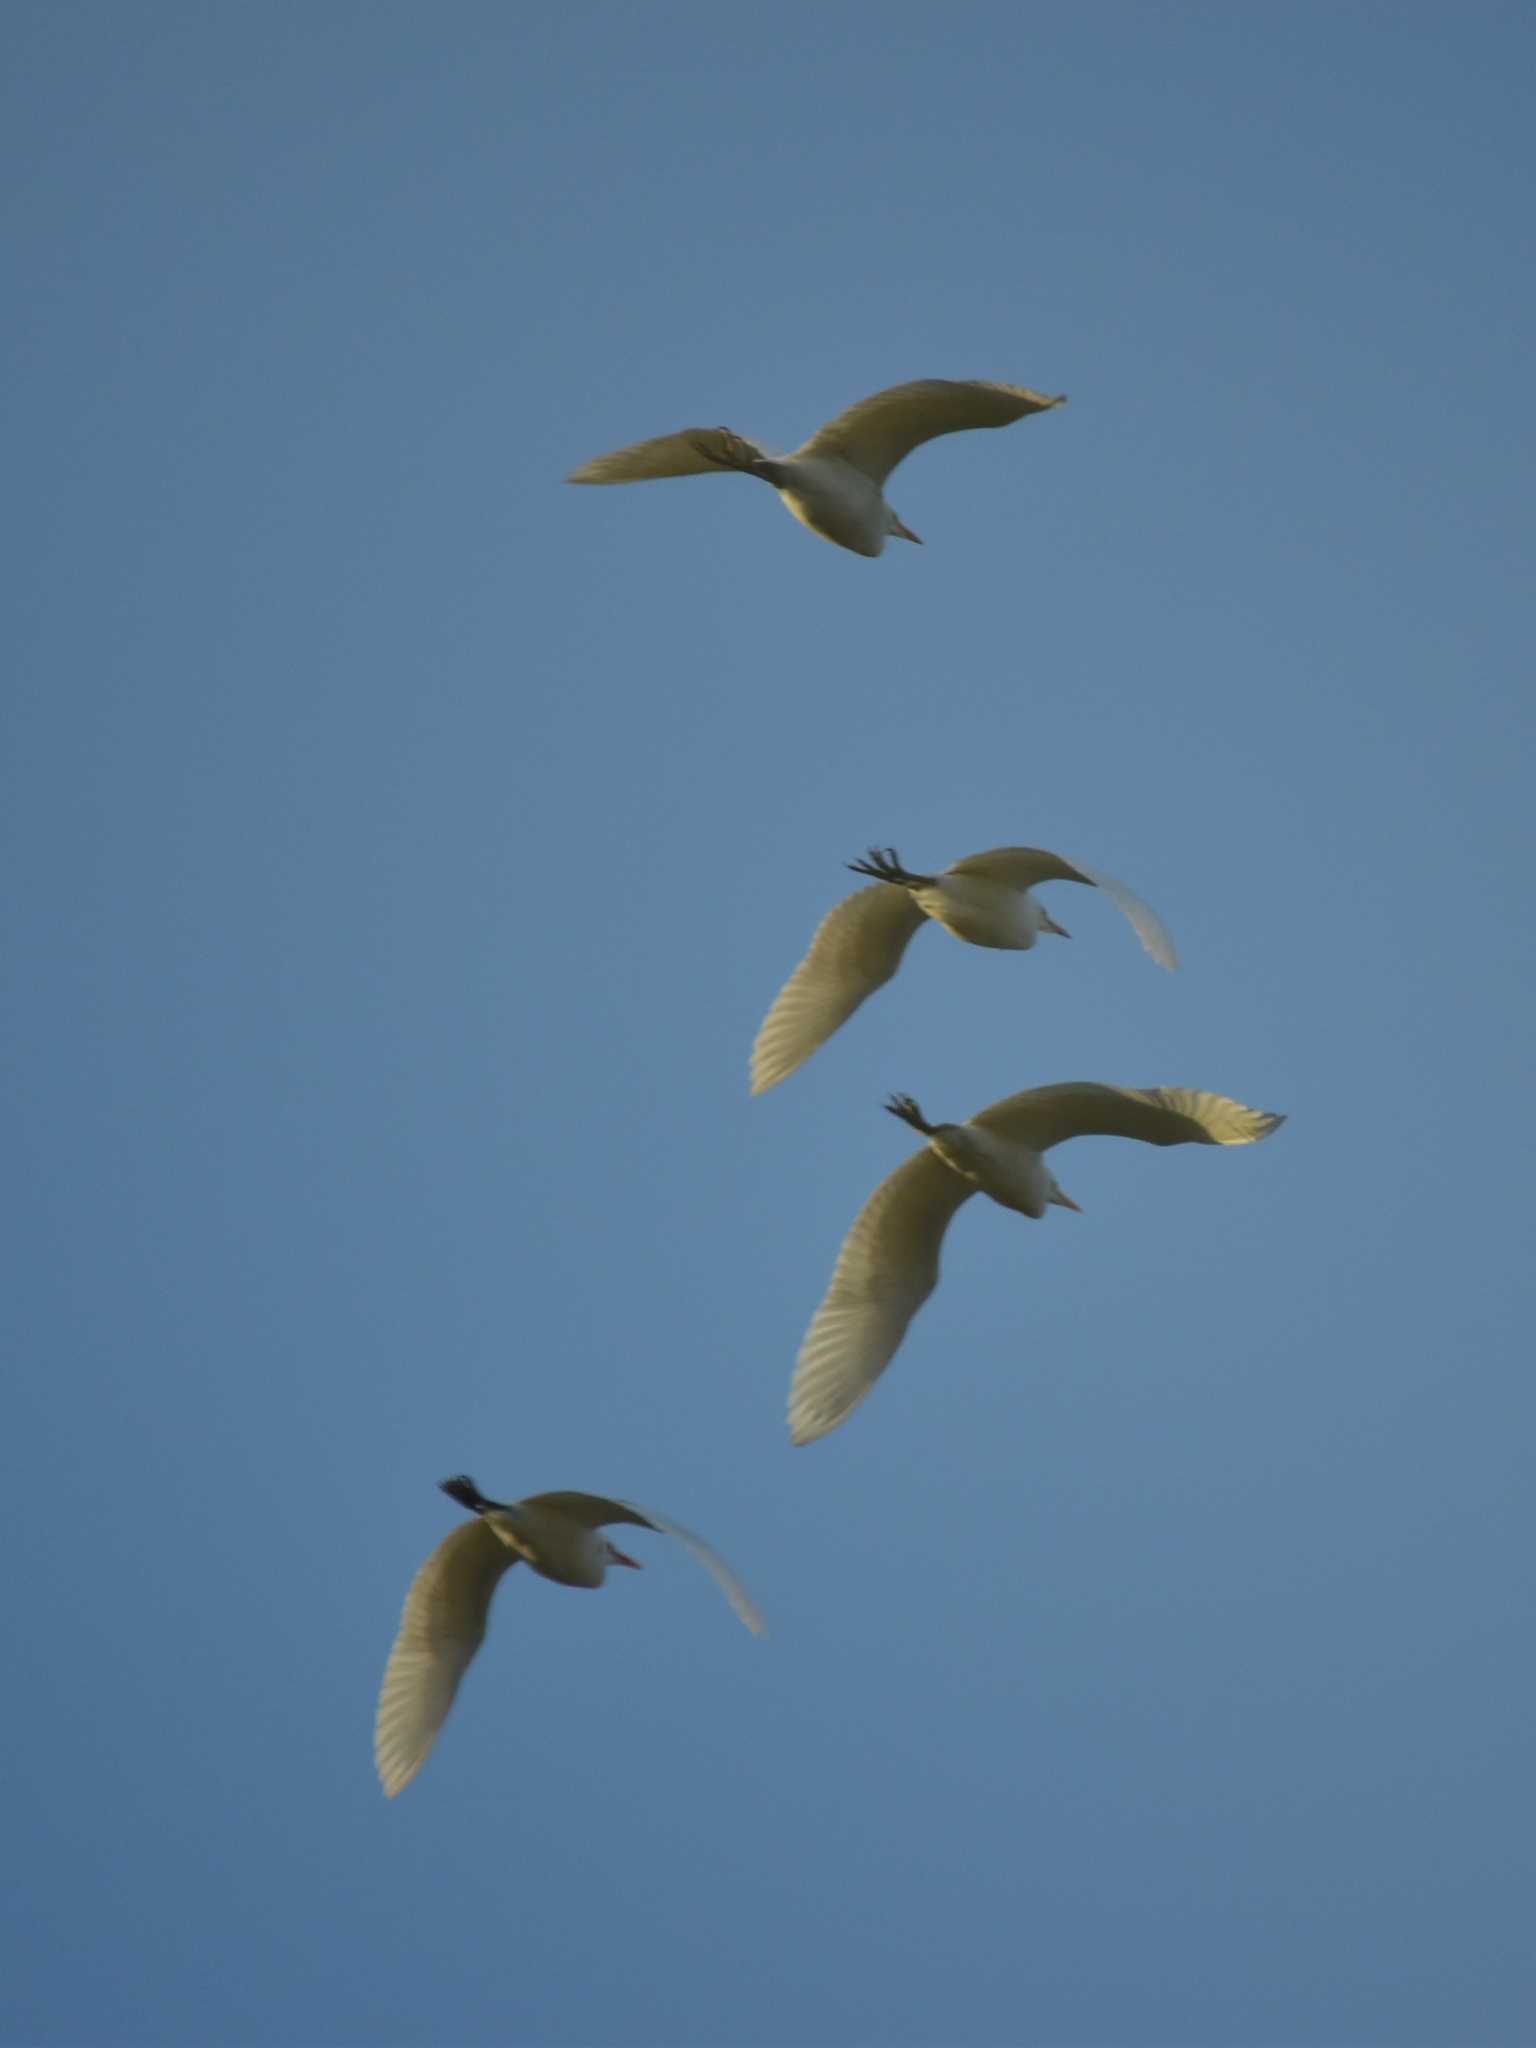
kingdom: Animalia
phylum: Chordata
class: Aves
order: Pelecaniformes
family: Ardeidae
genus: Bubulcus
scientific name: Bubulcus ibis
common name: Cattle egret
